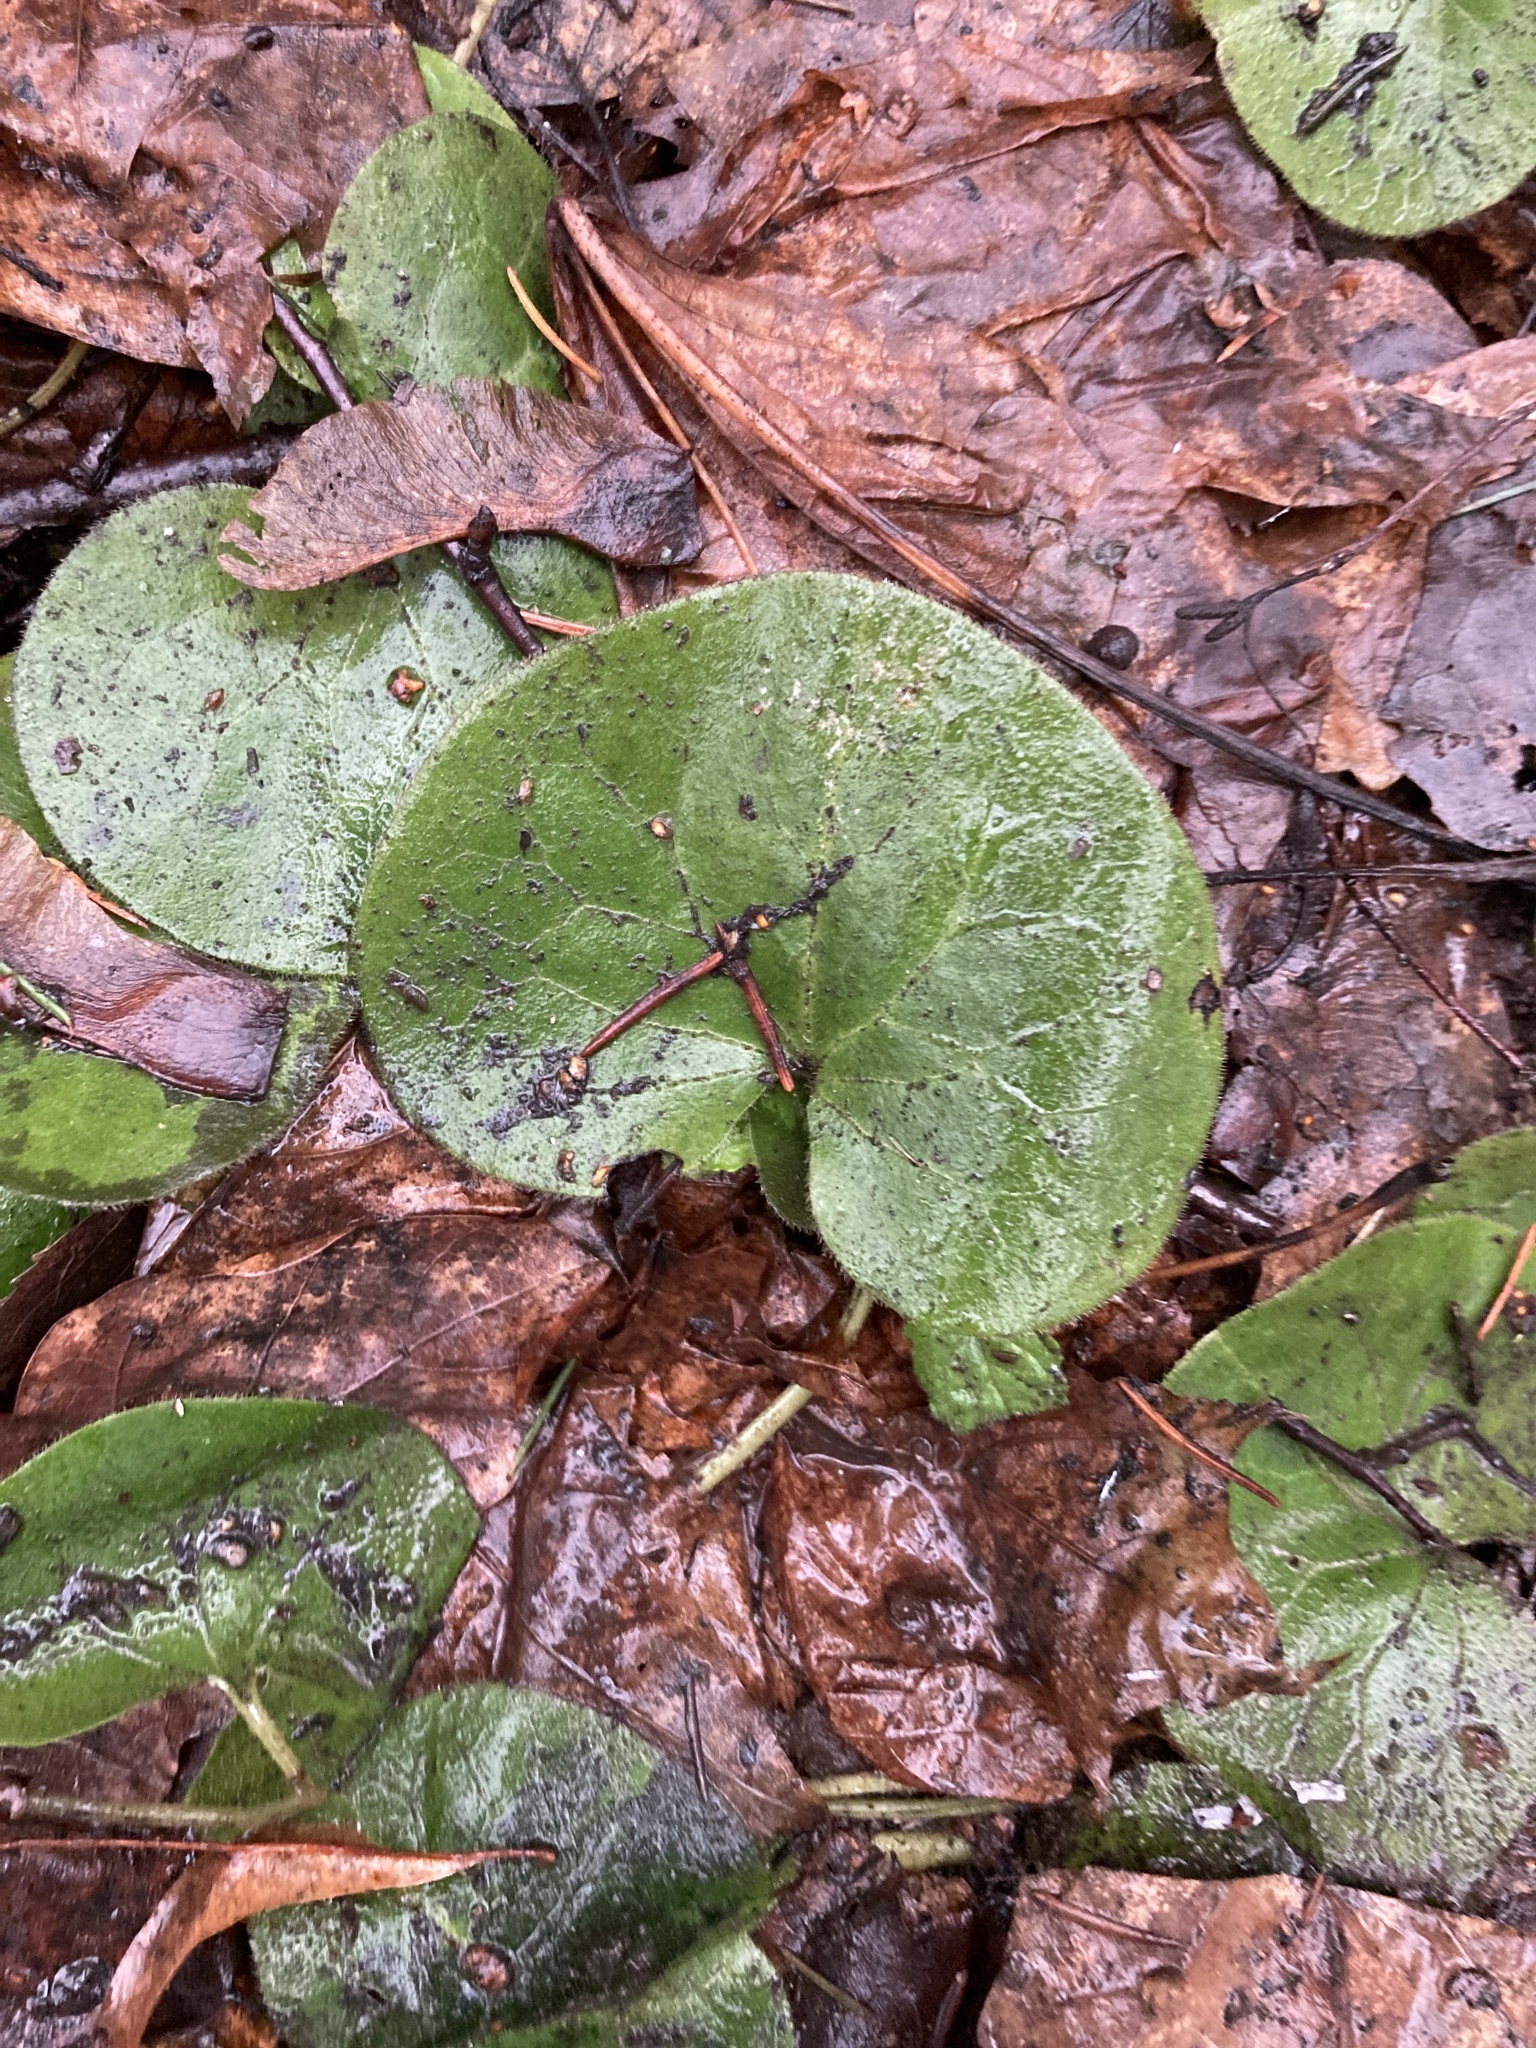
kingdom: Plantae
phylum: Tracheophyta
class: Magnoliopsida
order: Piperales
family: Aristolochiaceae
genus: Asarum
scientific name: Asarum europaeum
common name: Asarabacca
